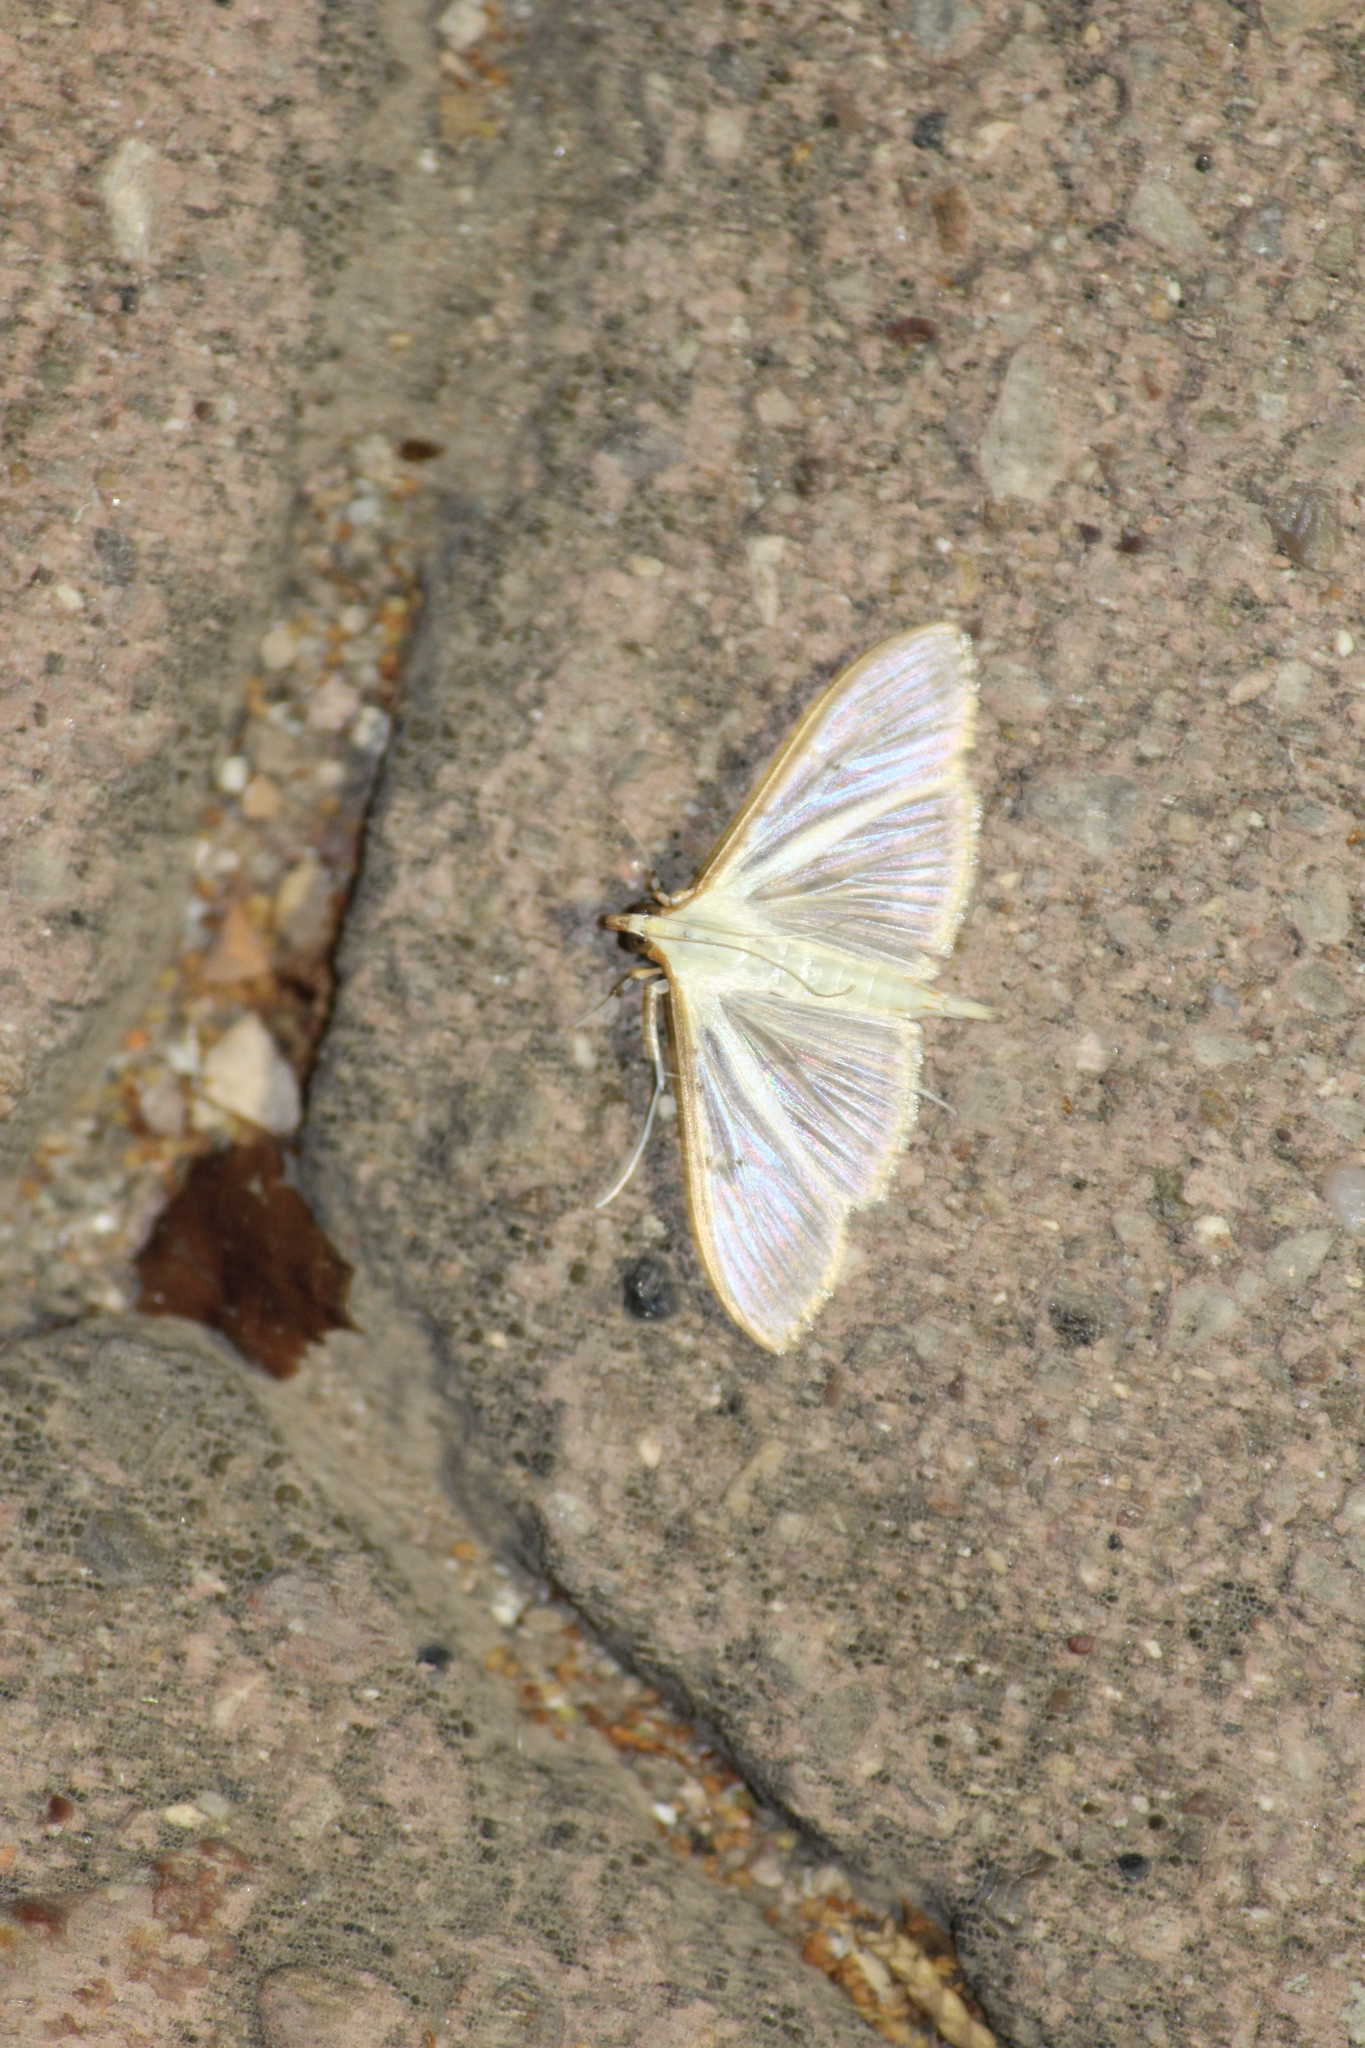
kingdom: Animalia
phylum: Arthropoda
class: Insecta
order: Lepidoptera
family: Crambidae
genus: Palpita
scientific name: Palpita quadristigmalis
